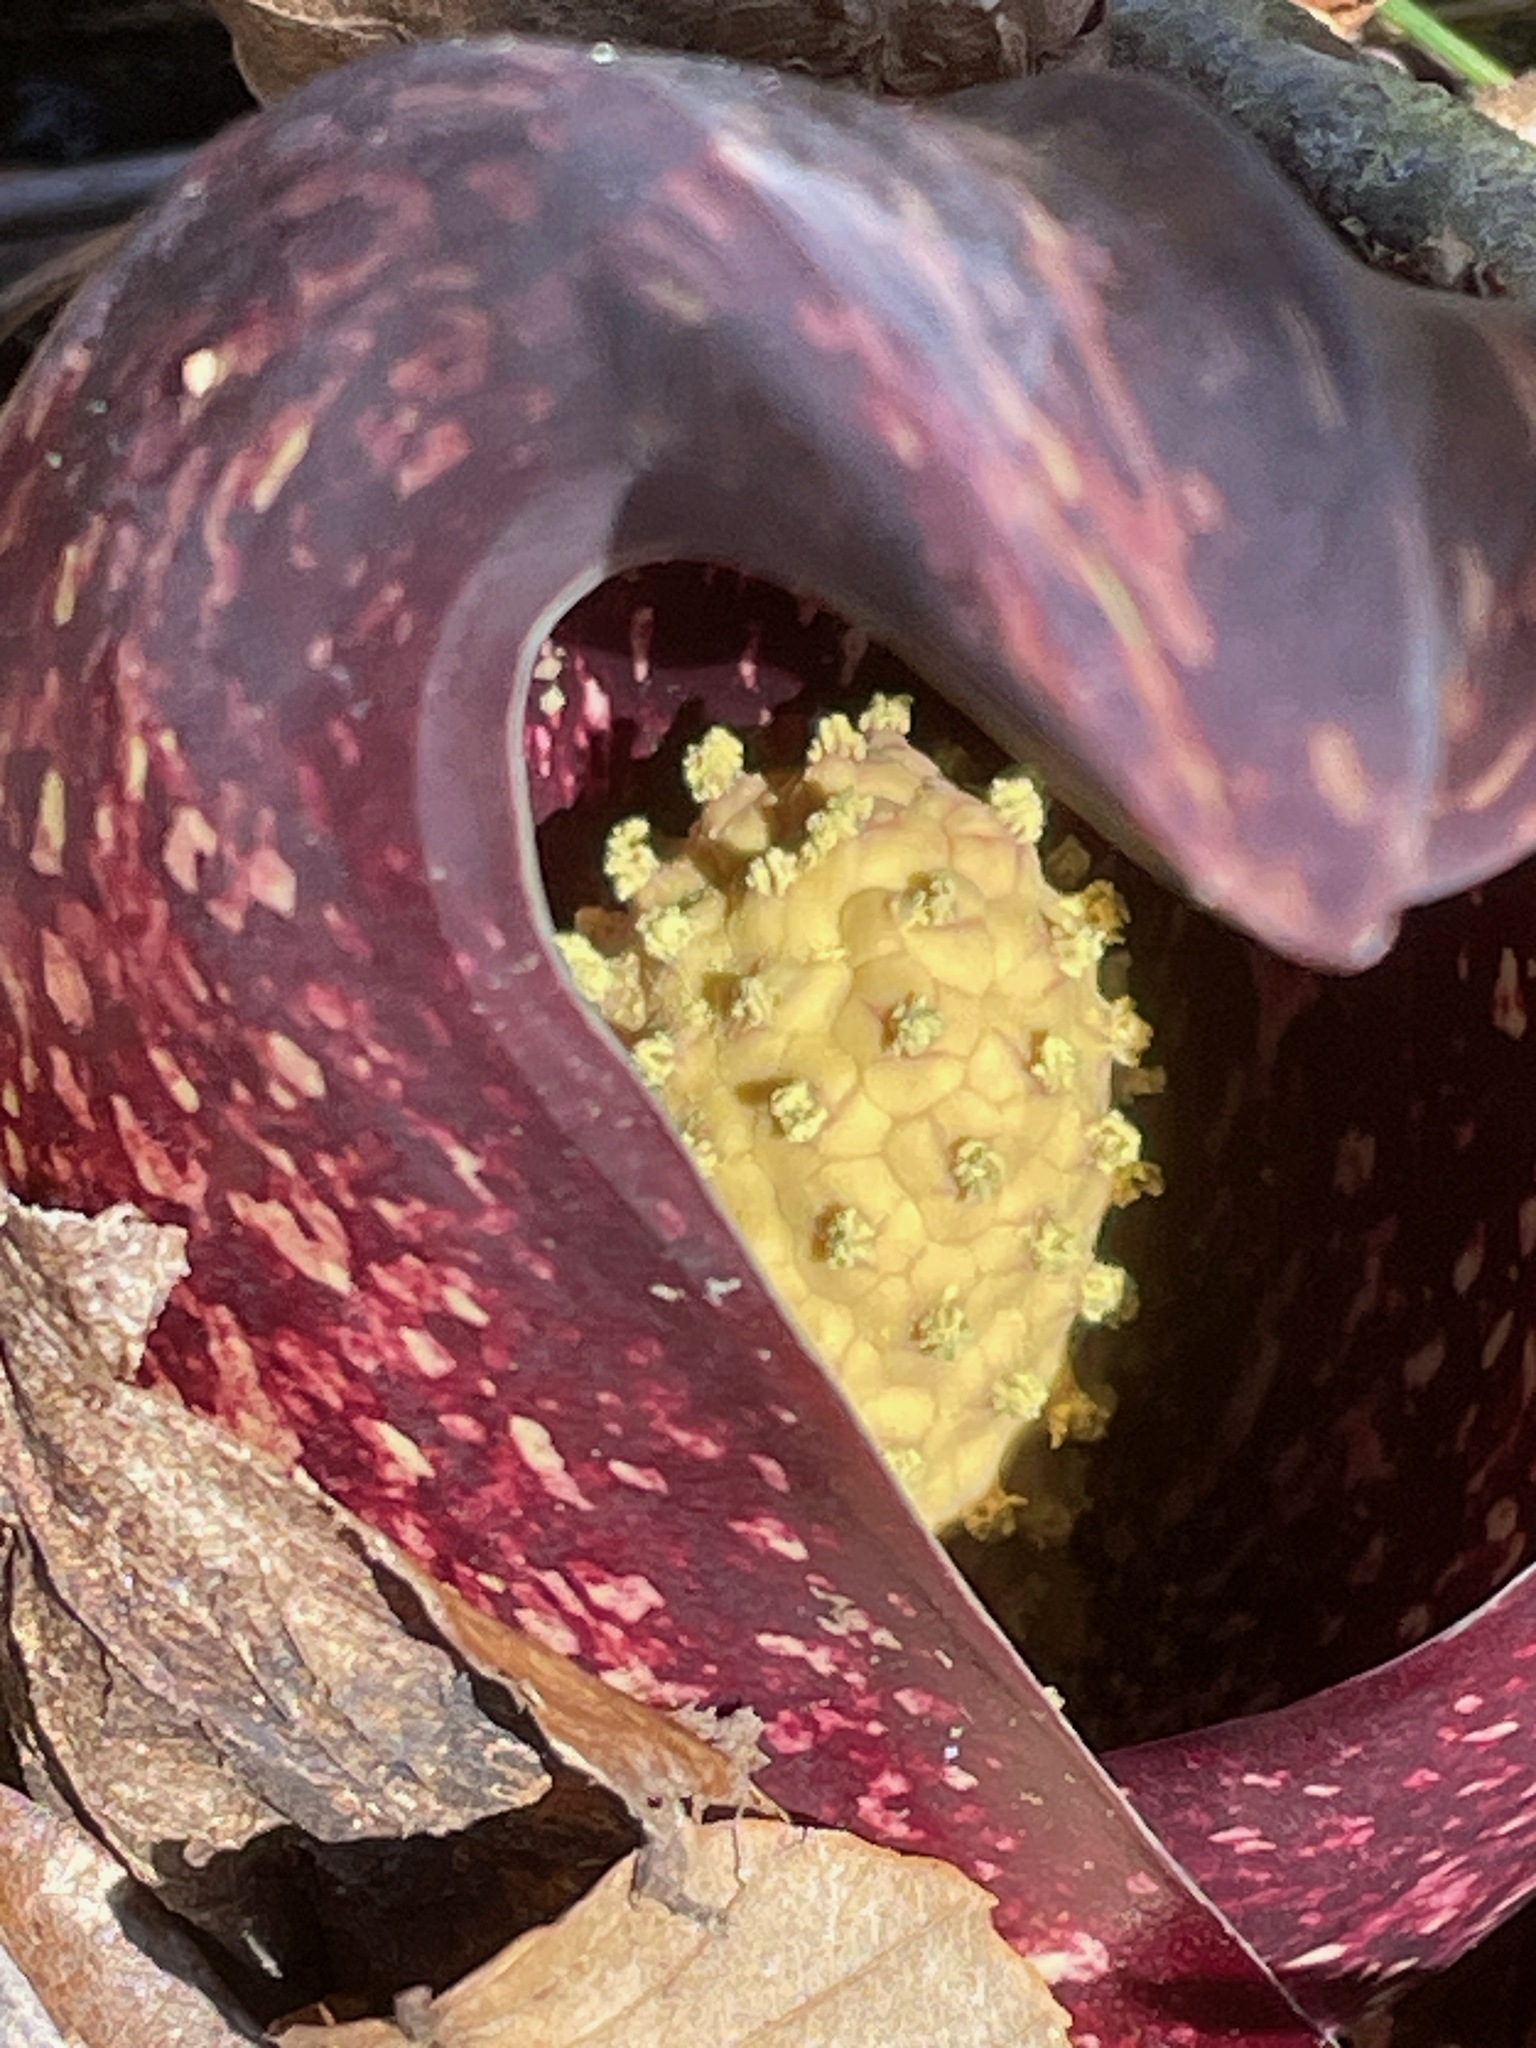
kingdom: Plantae
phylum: Tracheophyta
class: Liliopsida
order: Alismatales
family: Araceae
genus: Symplocarpus
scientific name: Symplocarpus foetidus
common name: Eastern skunk cabbage
